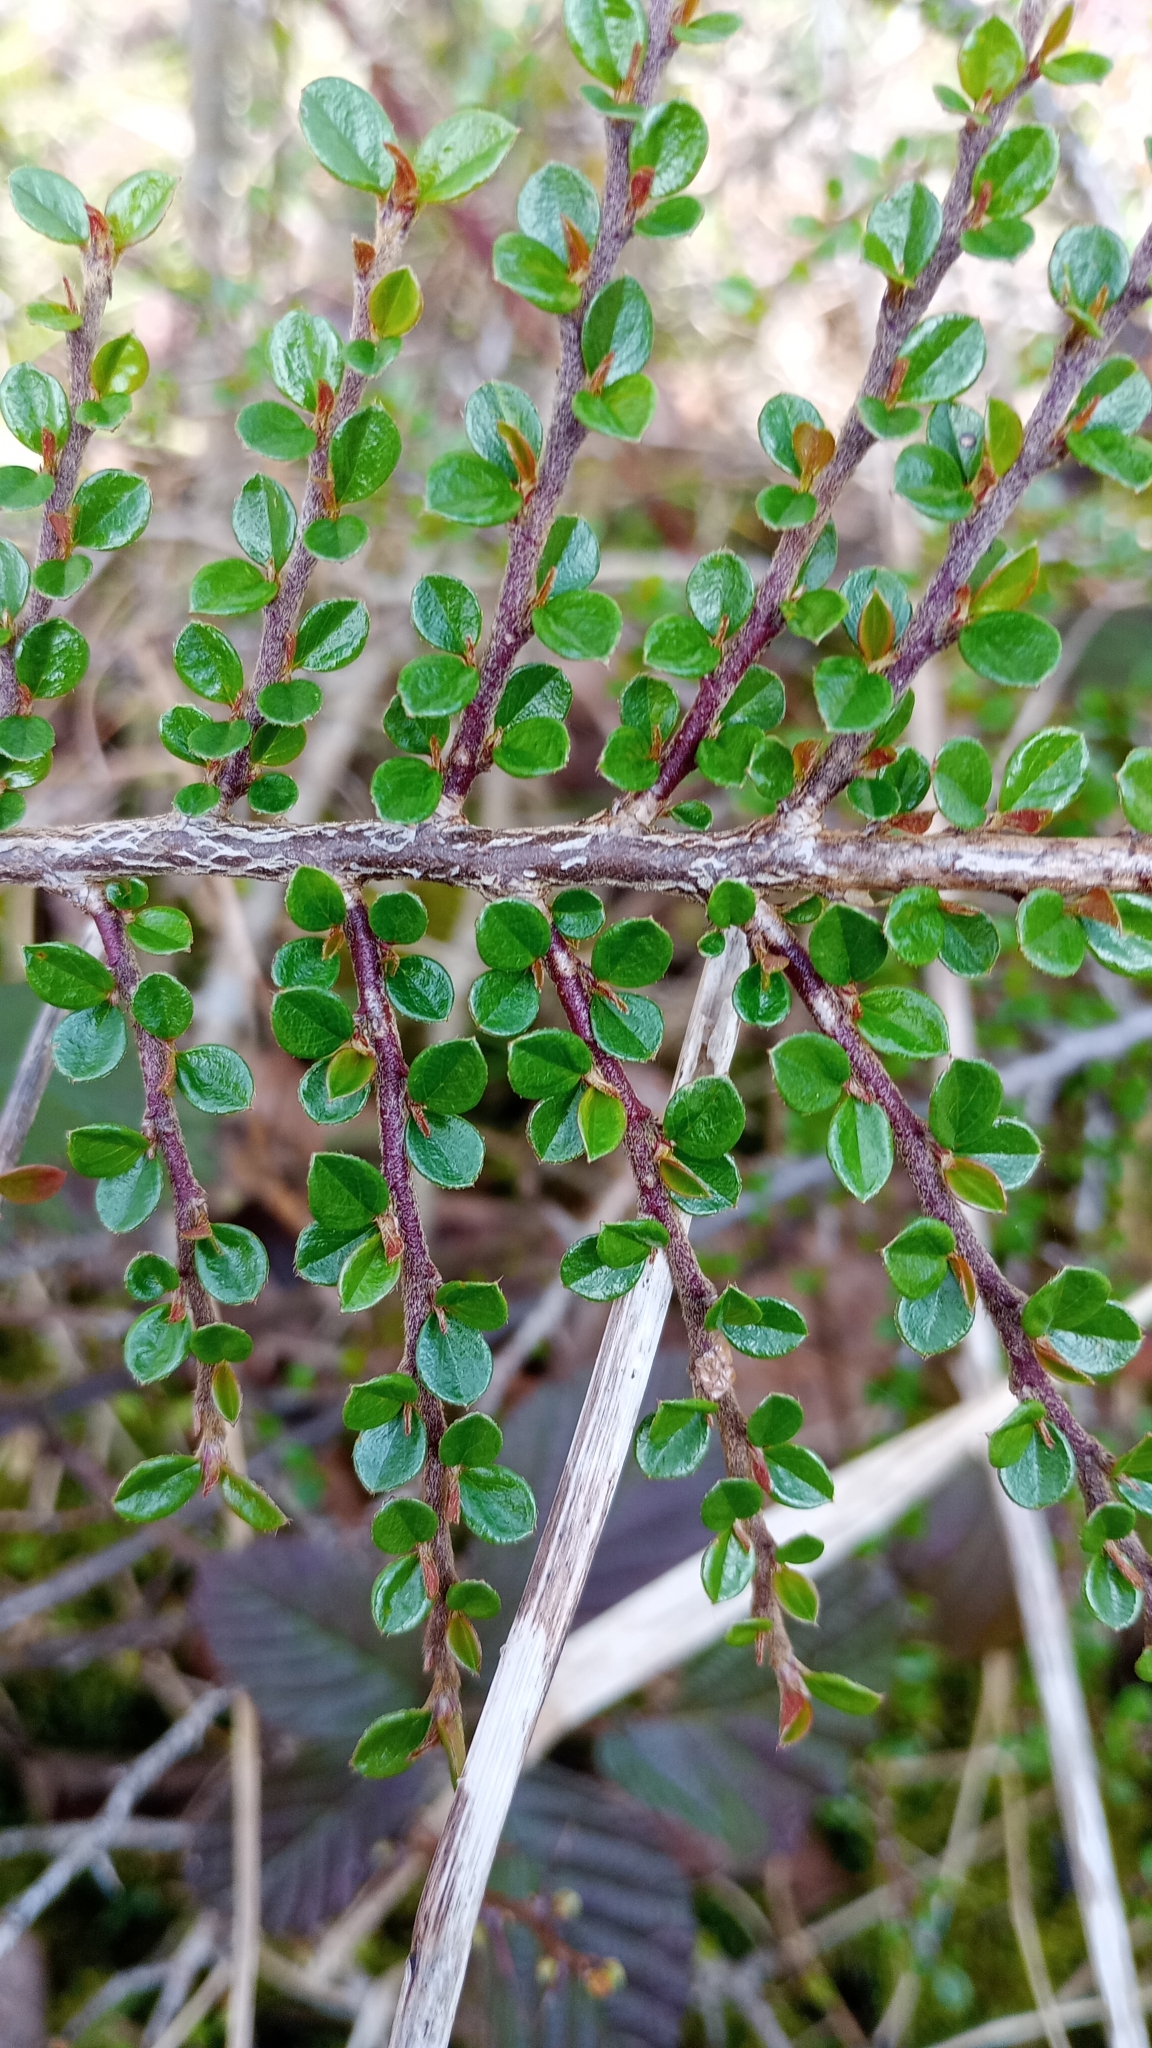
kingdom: Plantae
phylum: Tracheophyta
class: Magnoliopsida
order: Rosales
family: Rosaceae
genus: Cotoneaster
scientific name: Cotoneaster horizontalis
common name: Wall cotoneaster
